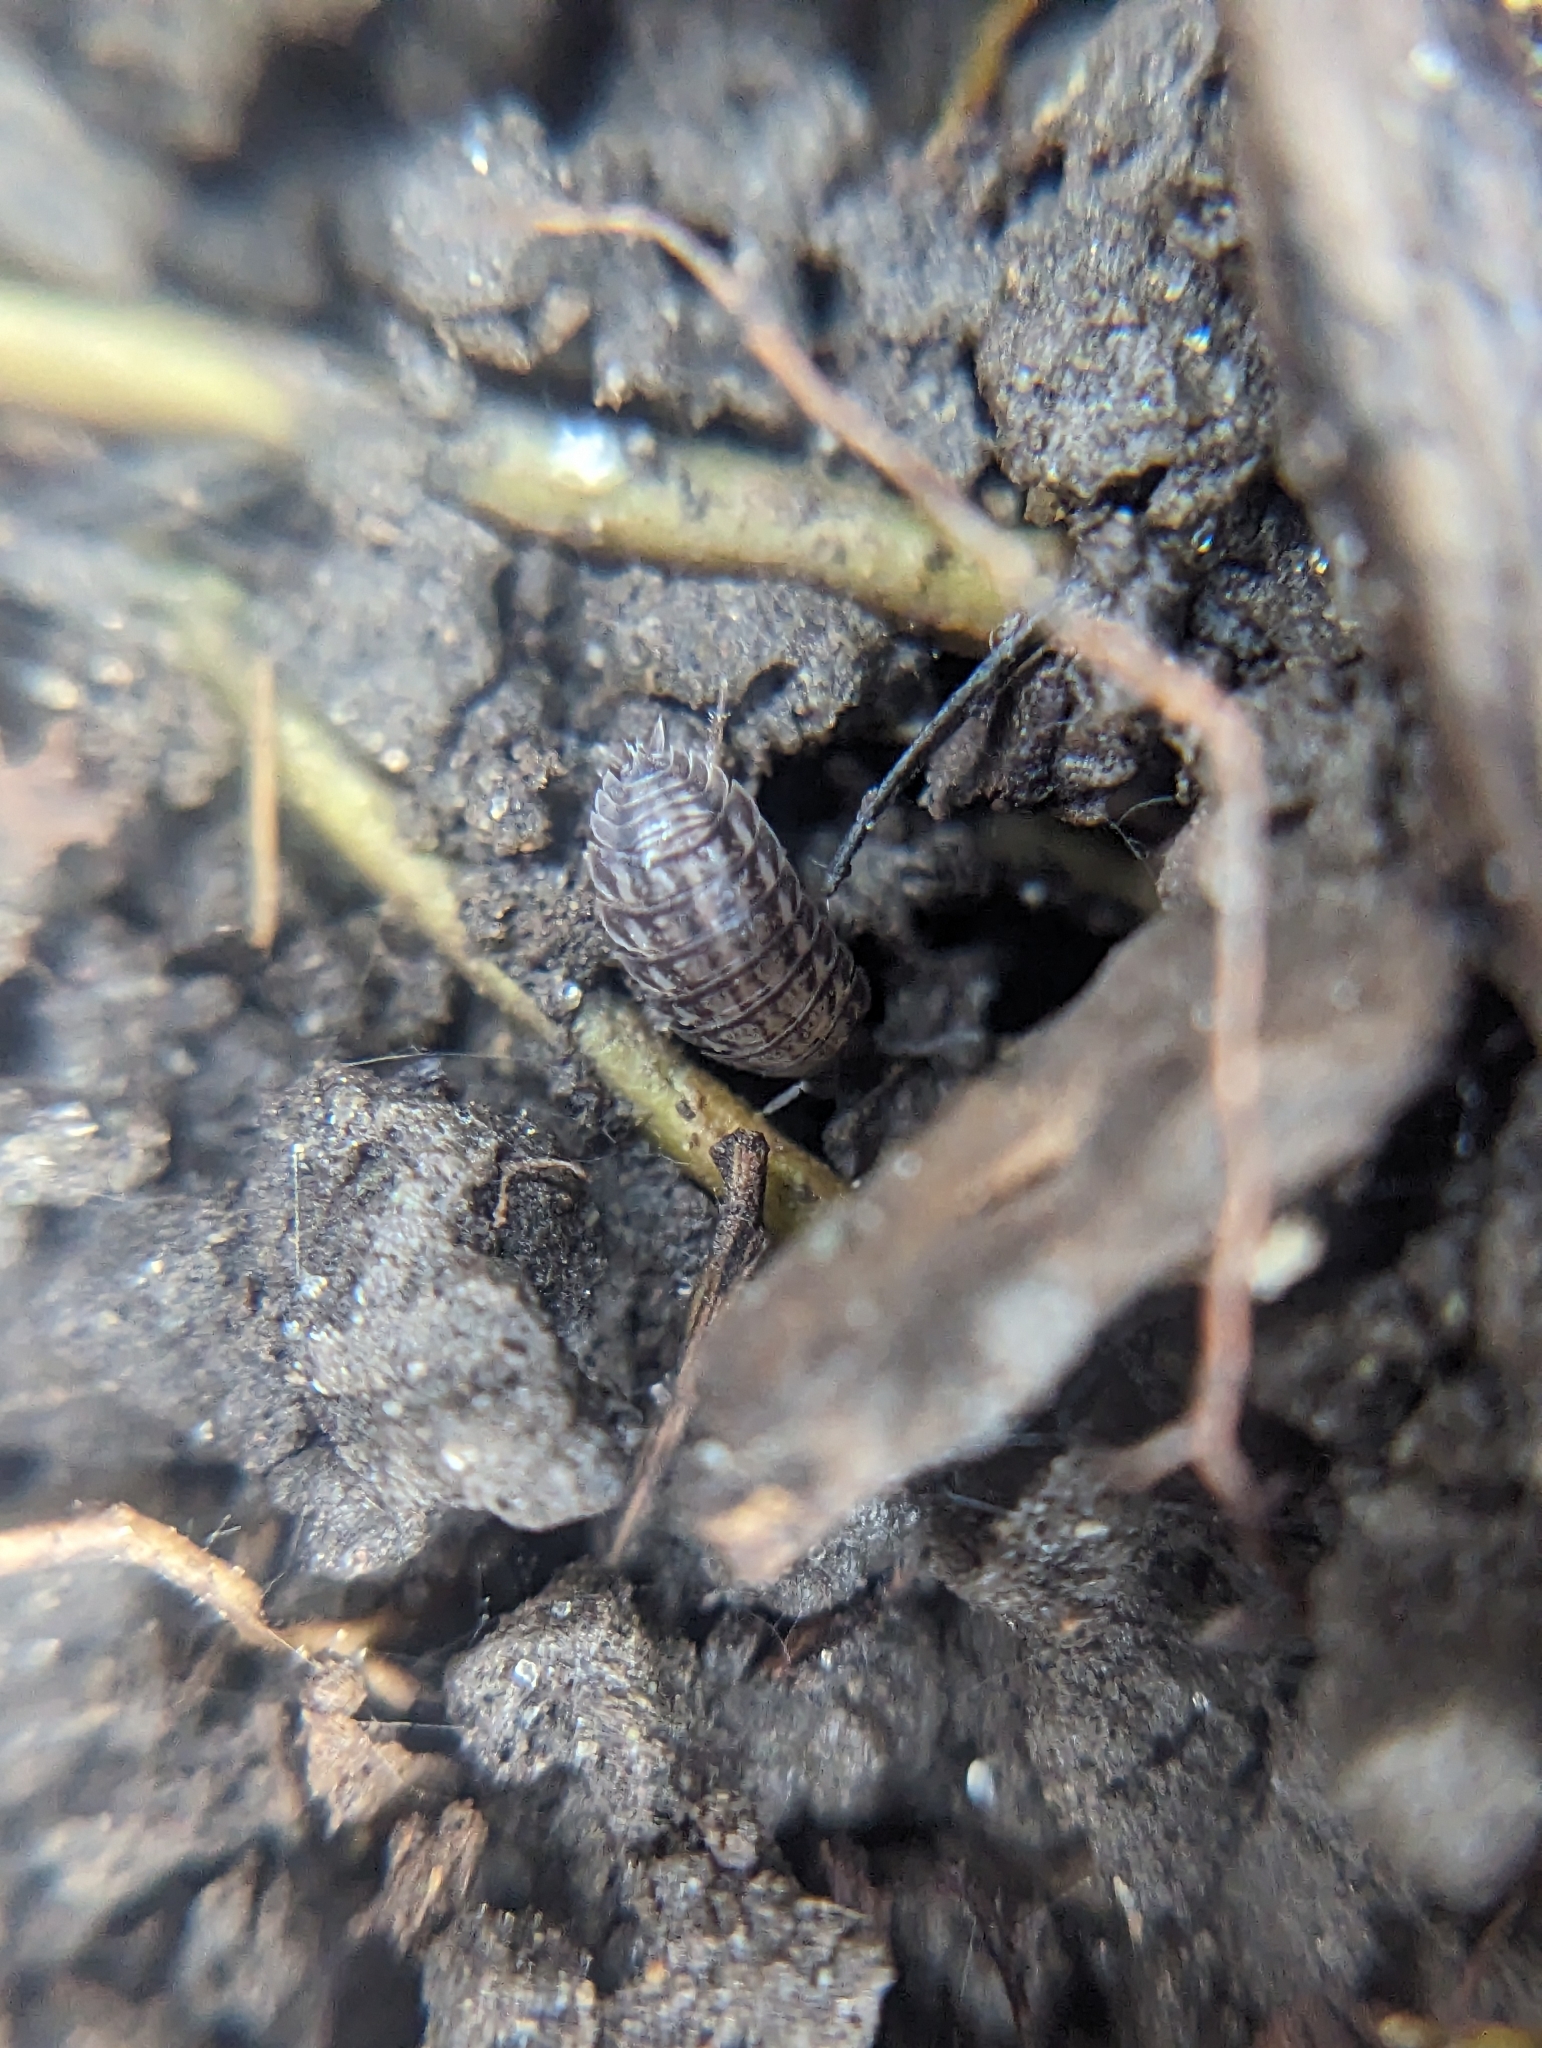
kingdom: Animalia
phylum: Arthropoda
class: Malacostraca
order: Isopoda
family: Trachelipodidae
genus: Trachelipus
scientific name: Trachelipus rathkii
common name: Isopod
